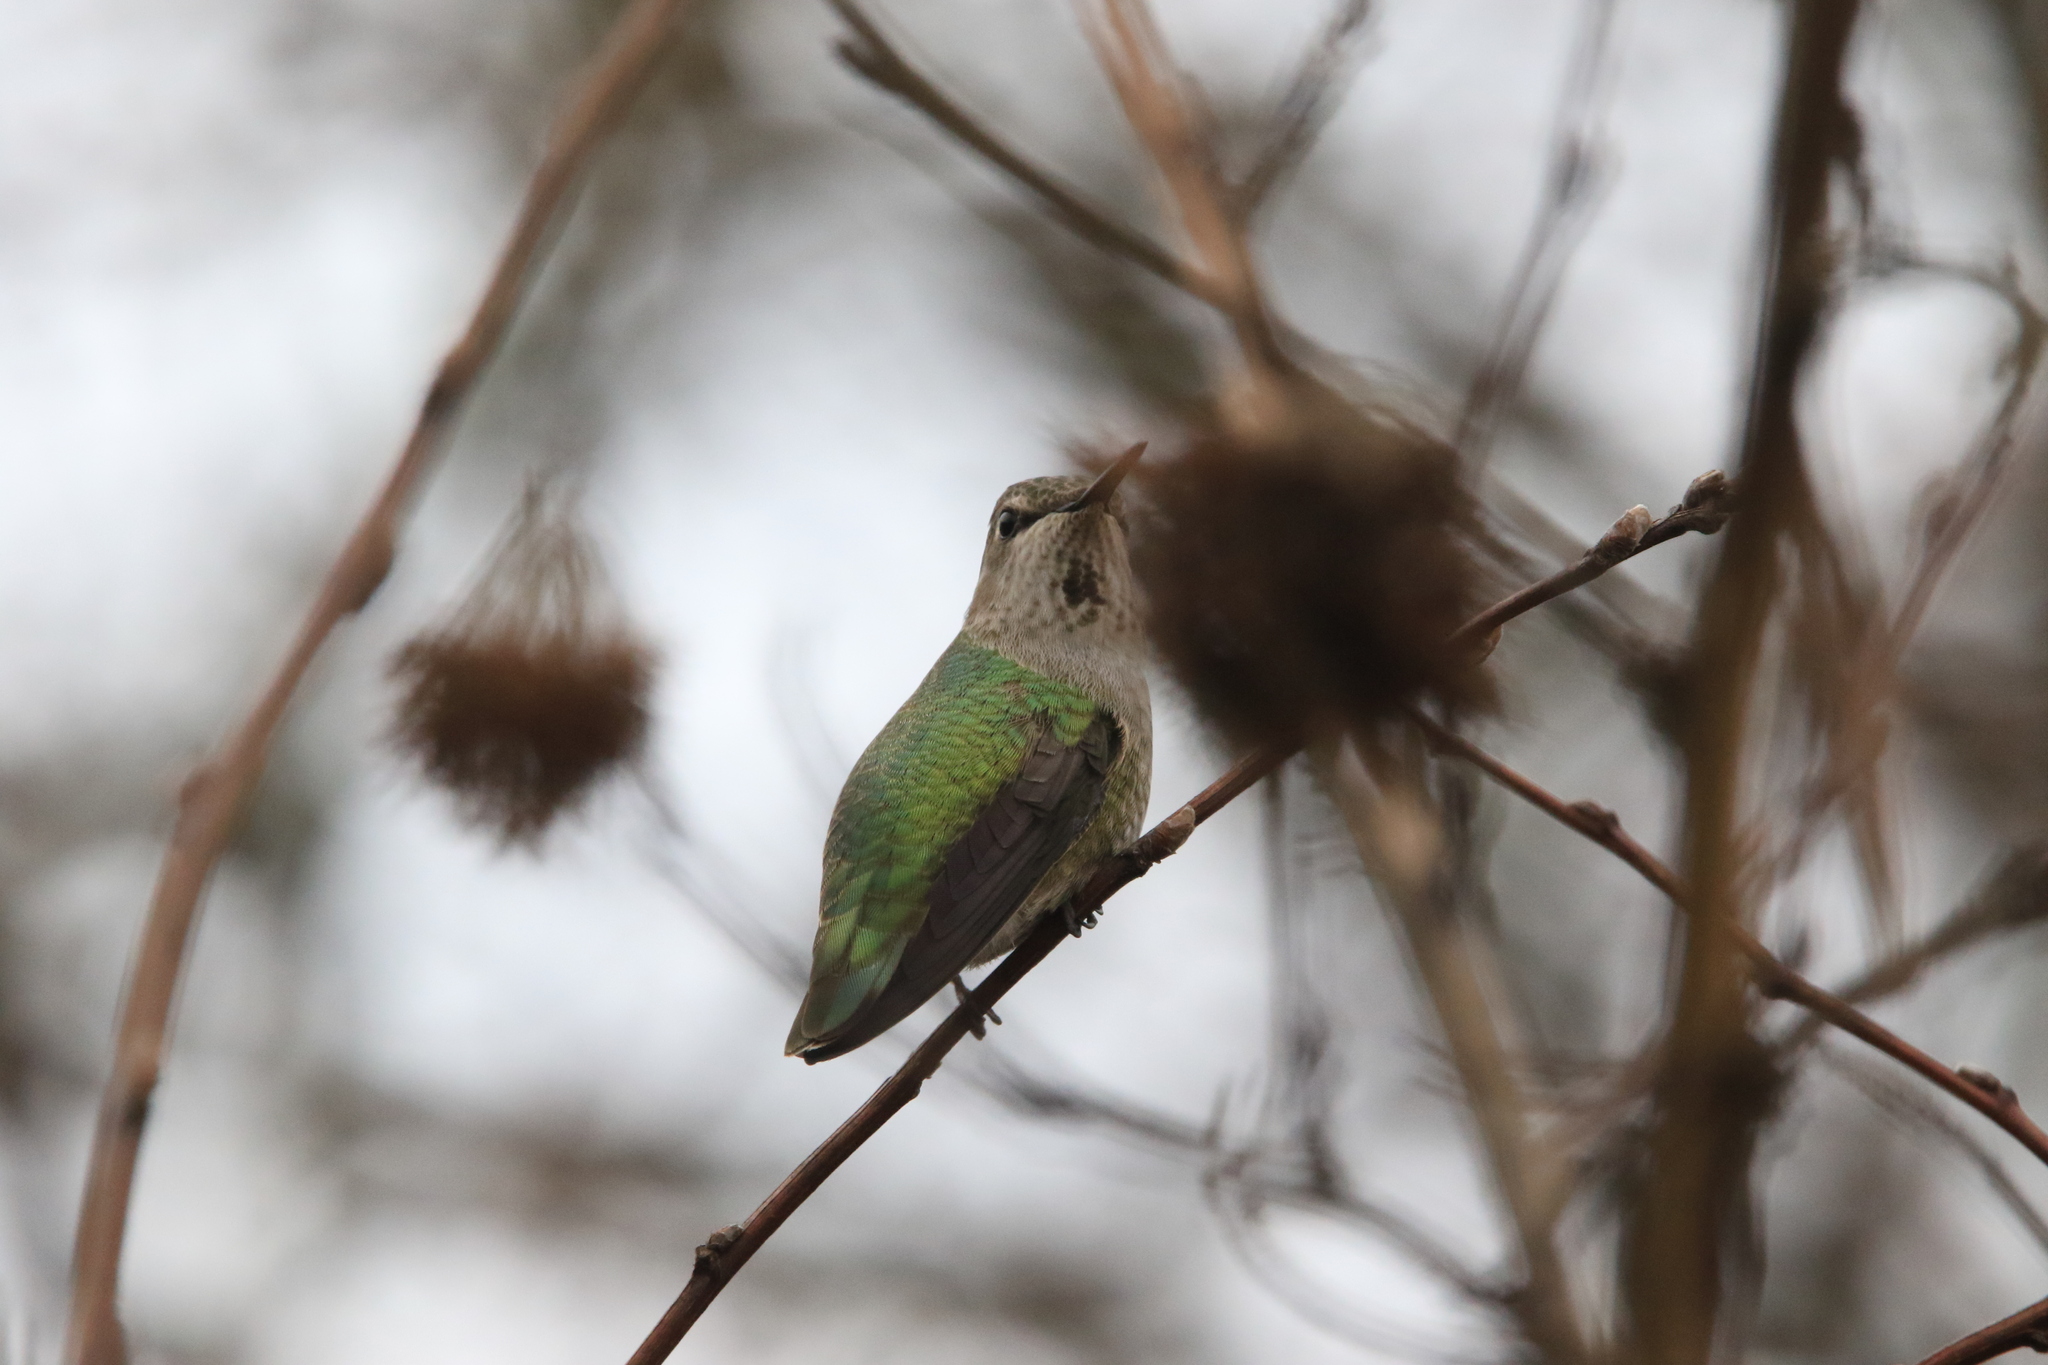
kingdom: Animalia
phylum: Chordata
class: Aves
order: Apodiformes
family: Trochilidae
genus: Calypte
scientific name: Calypte anna
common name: Anna's hummingbird
